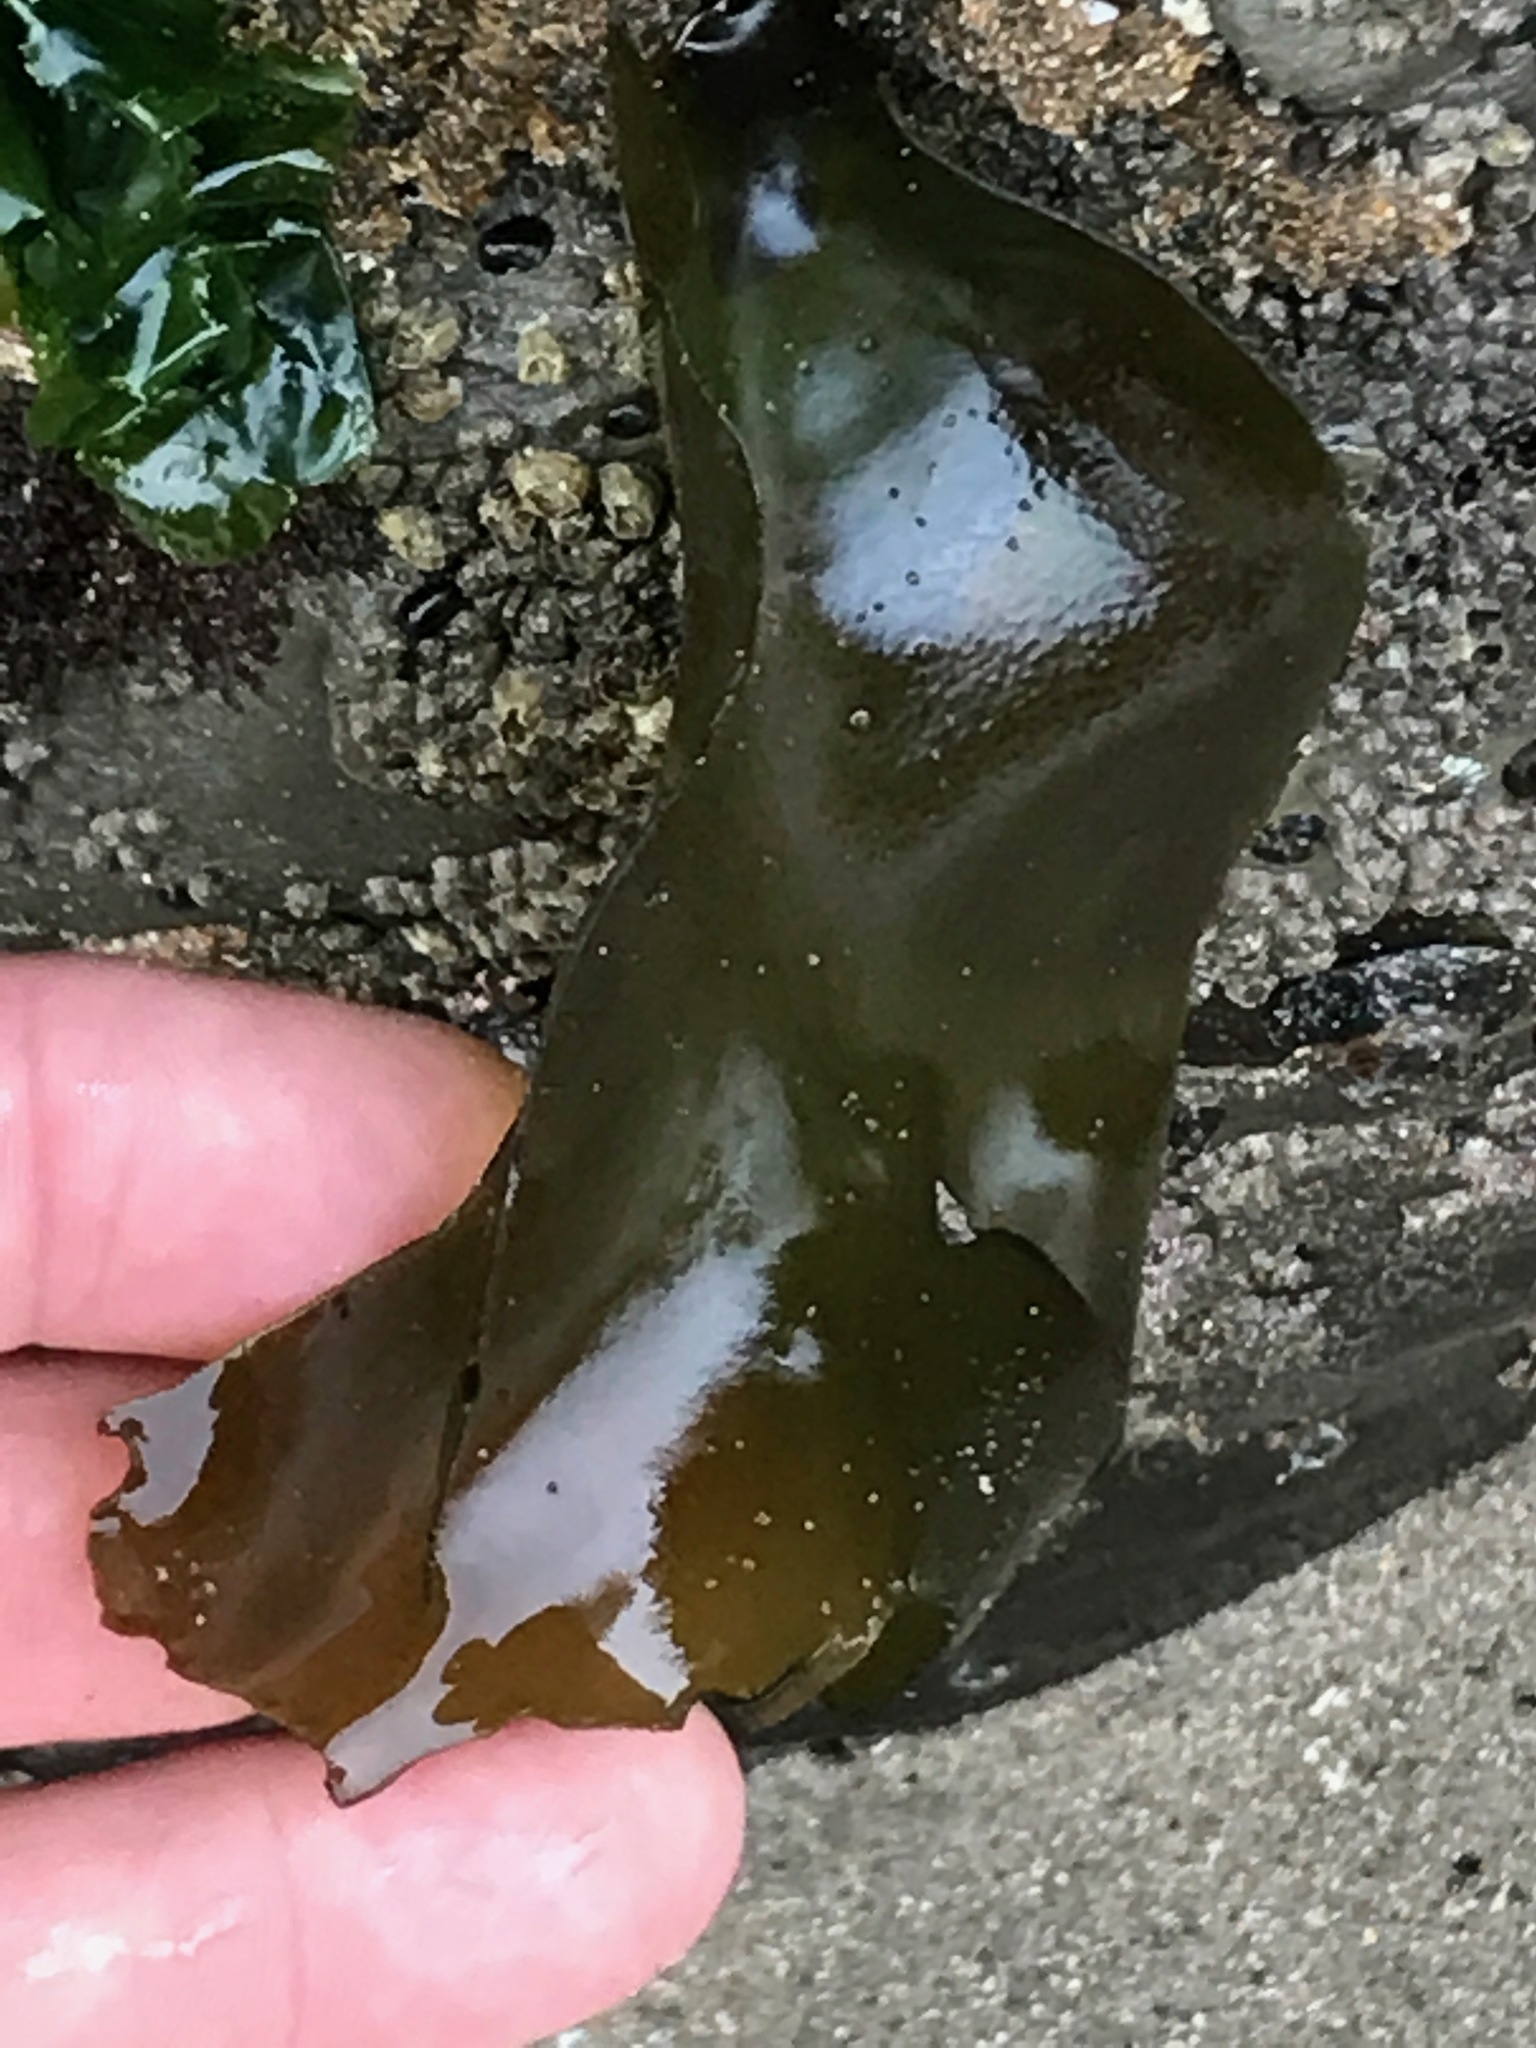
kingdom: Plantae
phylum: Rhodophyta
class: Florideophyceae
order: Gigartinales
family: Gigartinaceae
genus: Mazzaella
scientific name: Mazzaella flaccida
